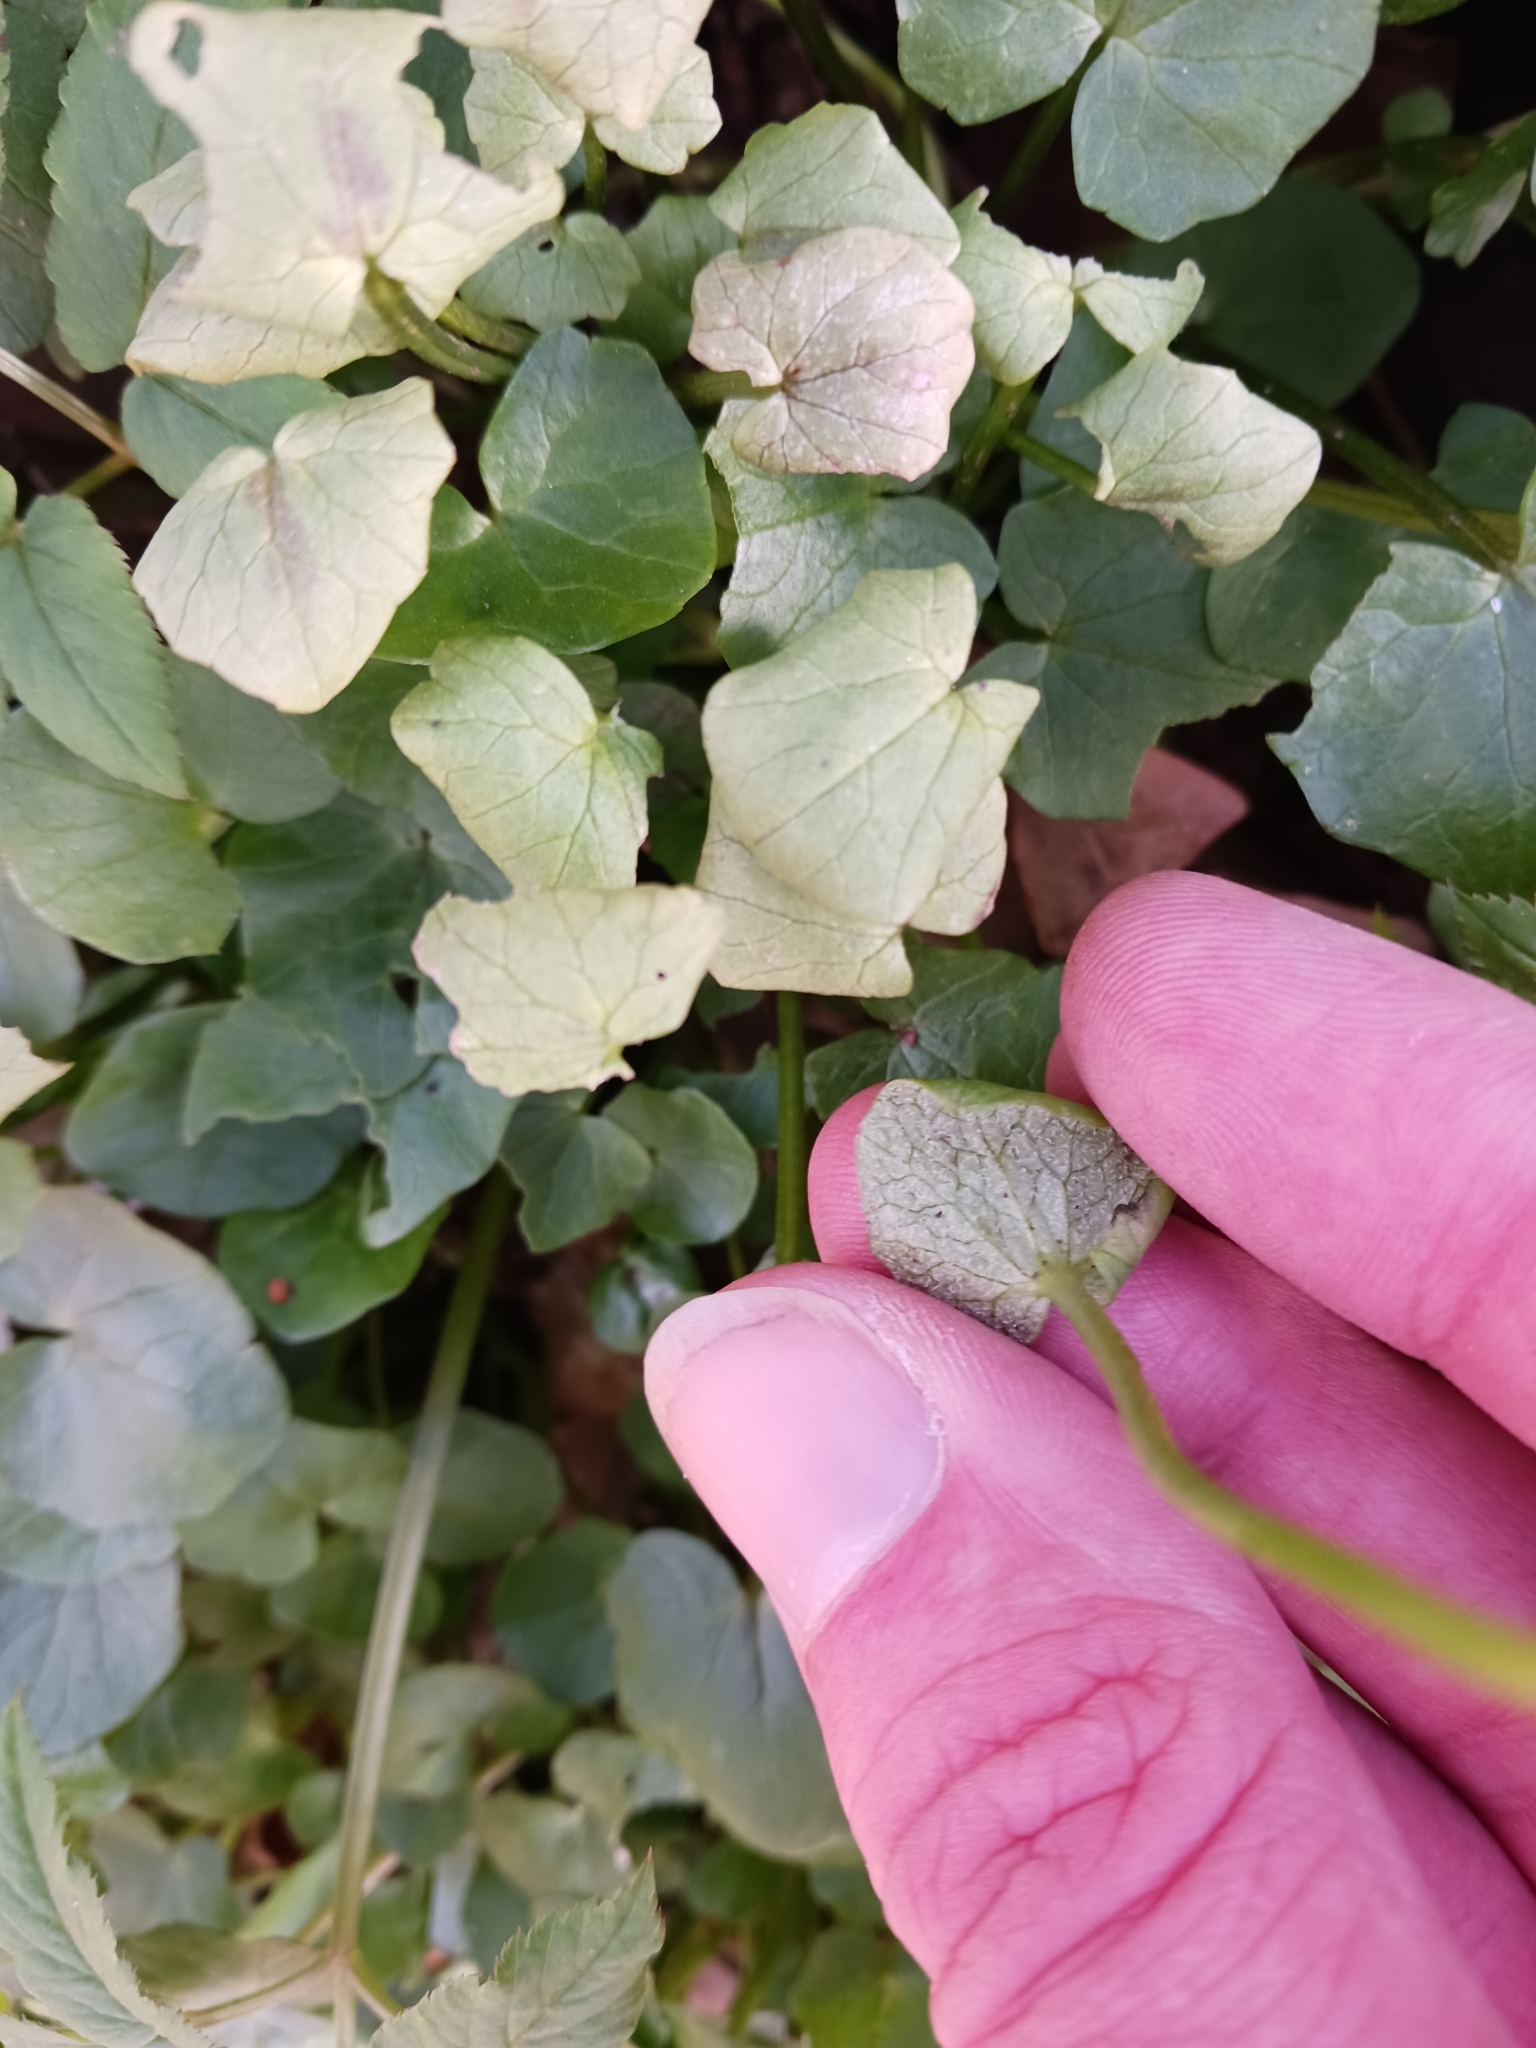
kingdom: Chromista
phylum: Oomycota
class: Peronosporea
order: Peronosporales
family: Peronosporaceae
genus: Peronospora
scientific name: Peronospora ficariae
